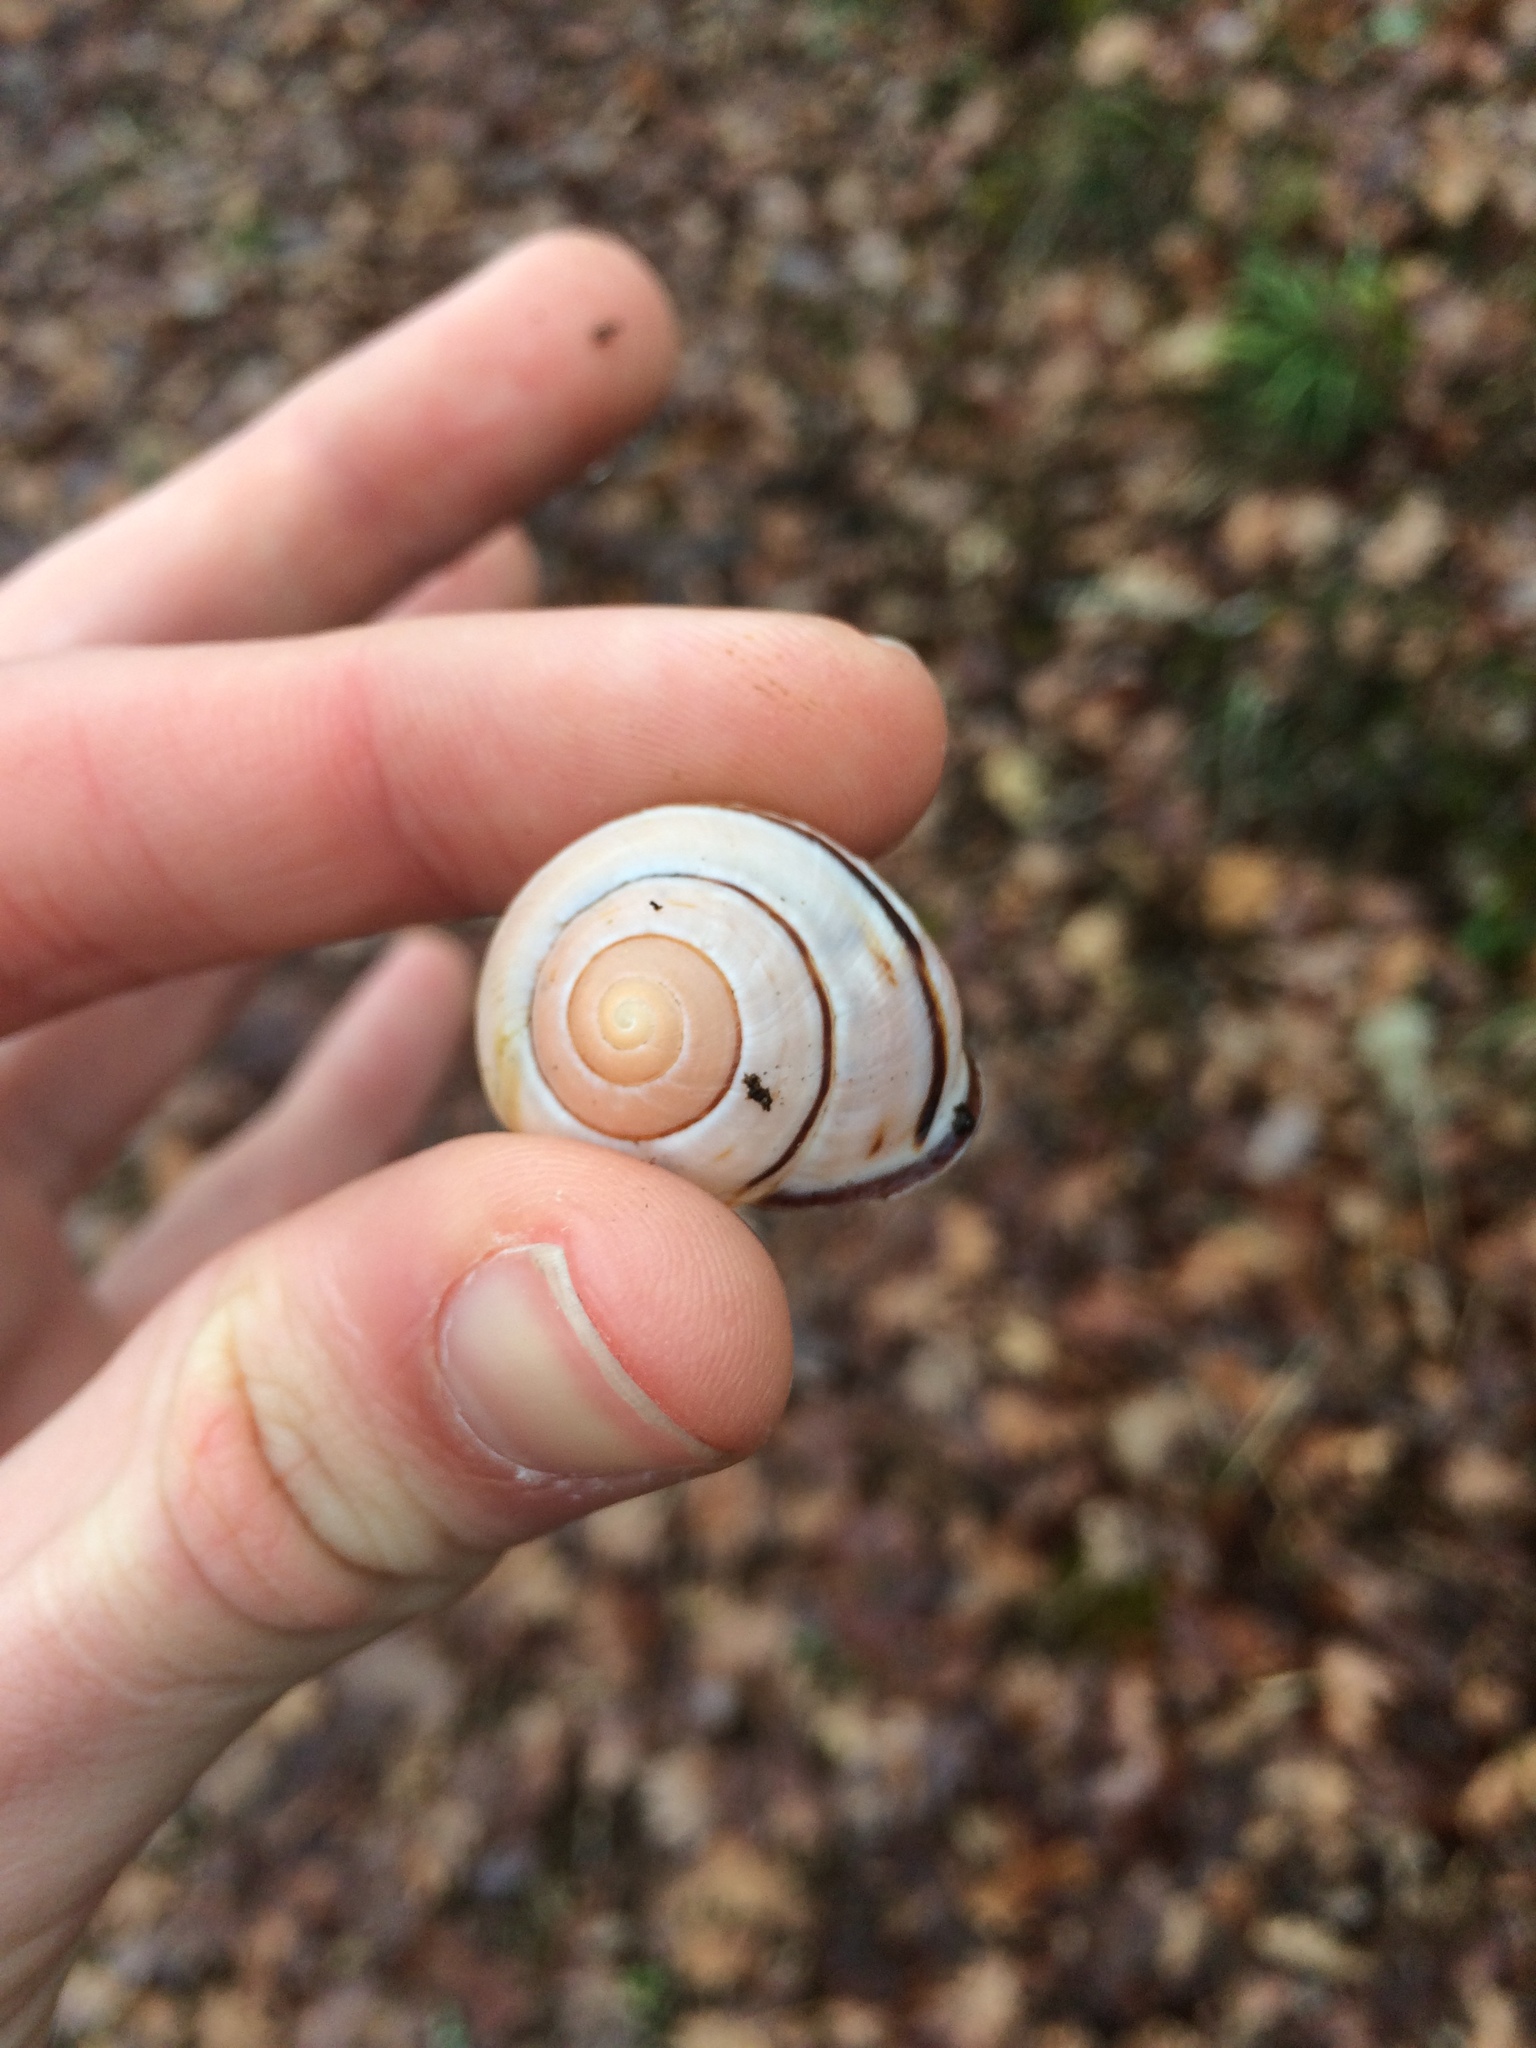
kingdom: Animalia
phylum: Mollusca
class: Gastropoda
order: Stylommatophora
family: Helicidae
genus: Cepaea
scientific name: Cepaea nemoralis
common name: Grovesnail
